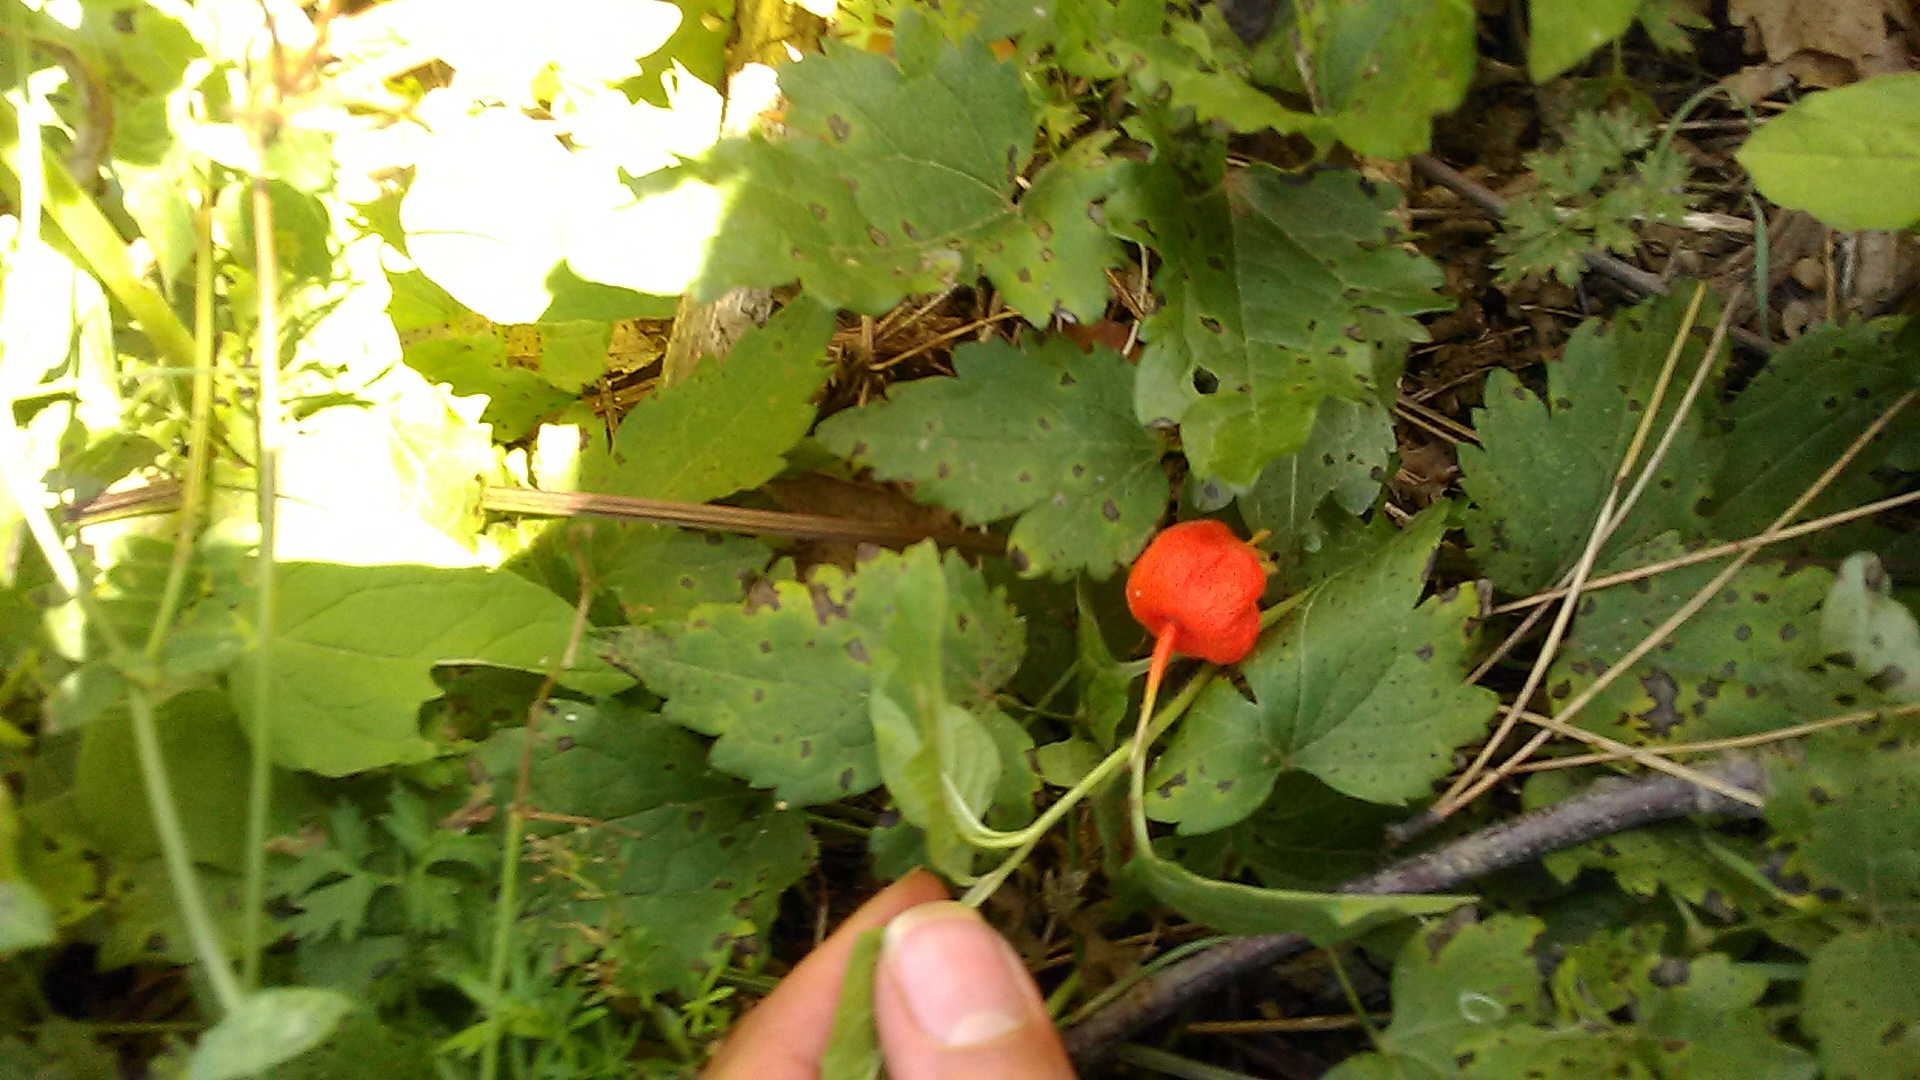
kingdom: Plantae
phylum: Tracheophyta
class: Magnoliopsida
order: Solanales
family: Solanaceae
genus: Alkekengi
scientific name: Alkekengi officinarum
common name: Japanese-lantern
